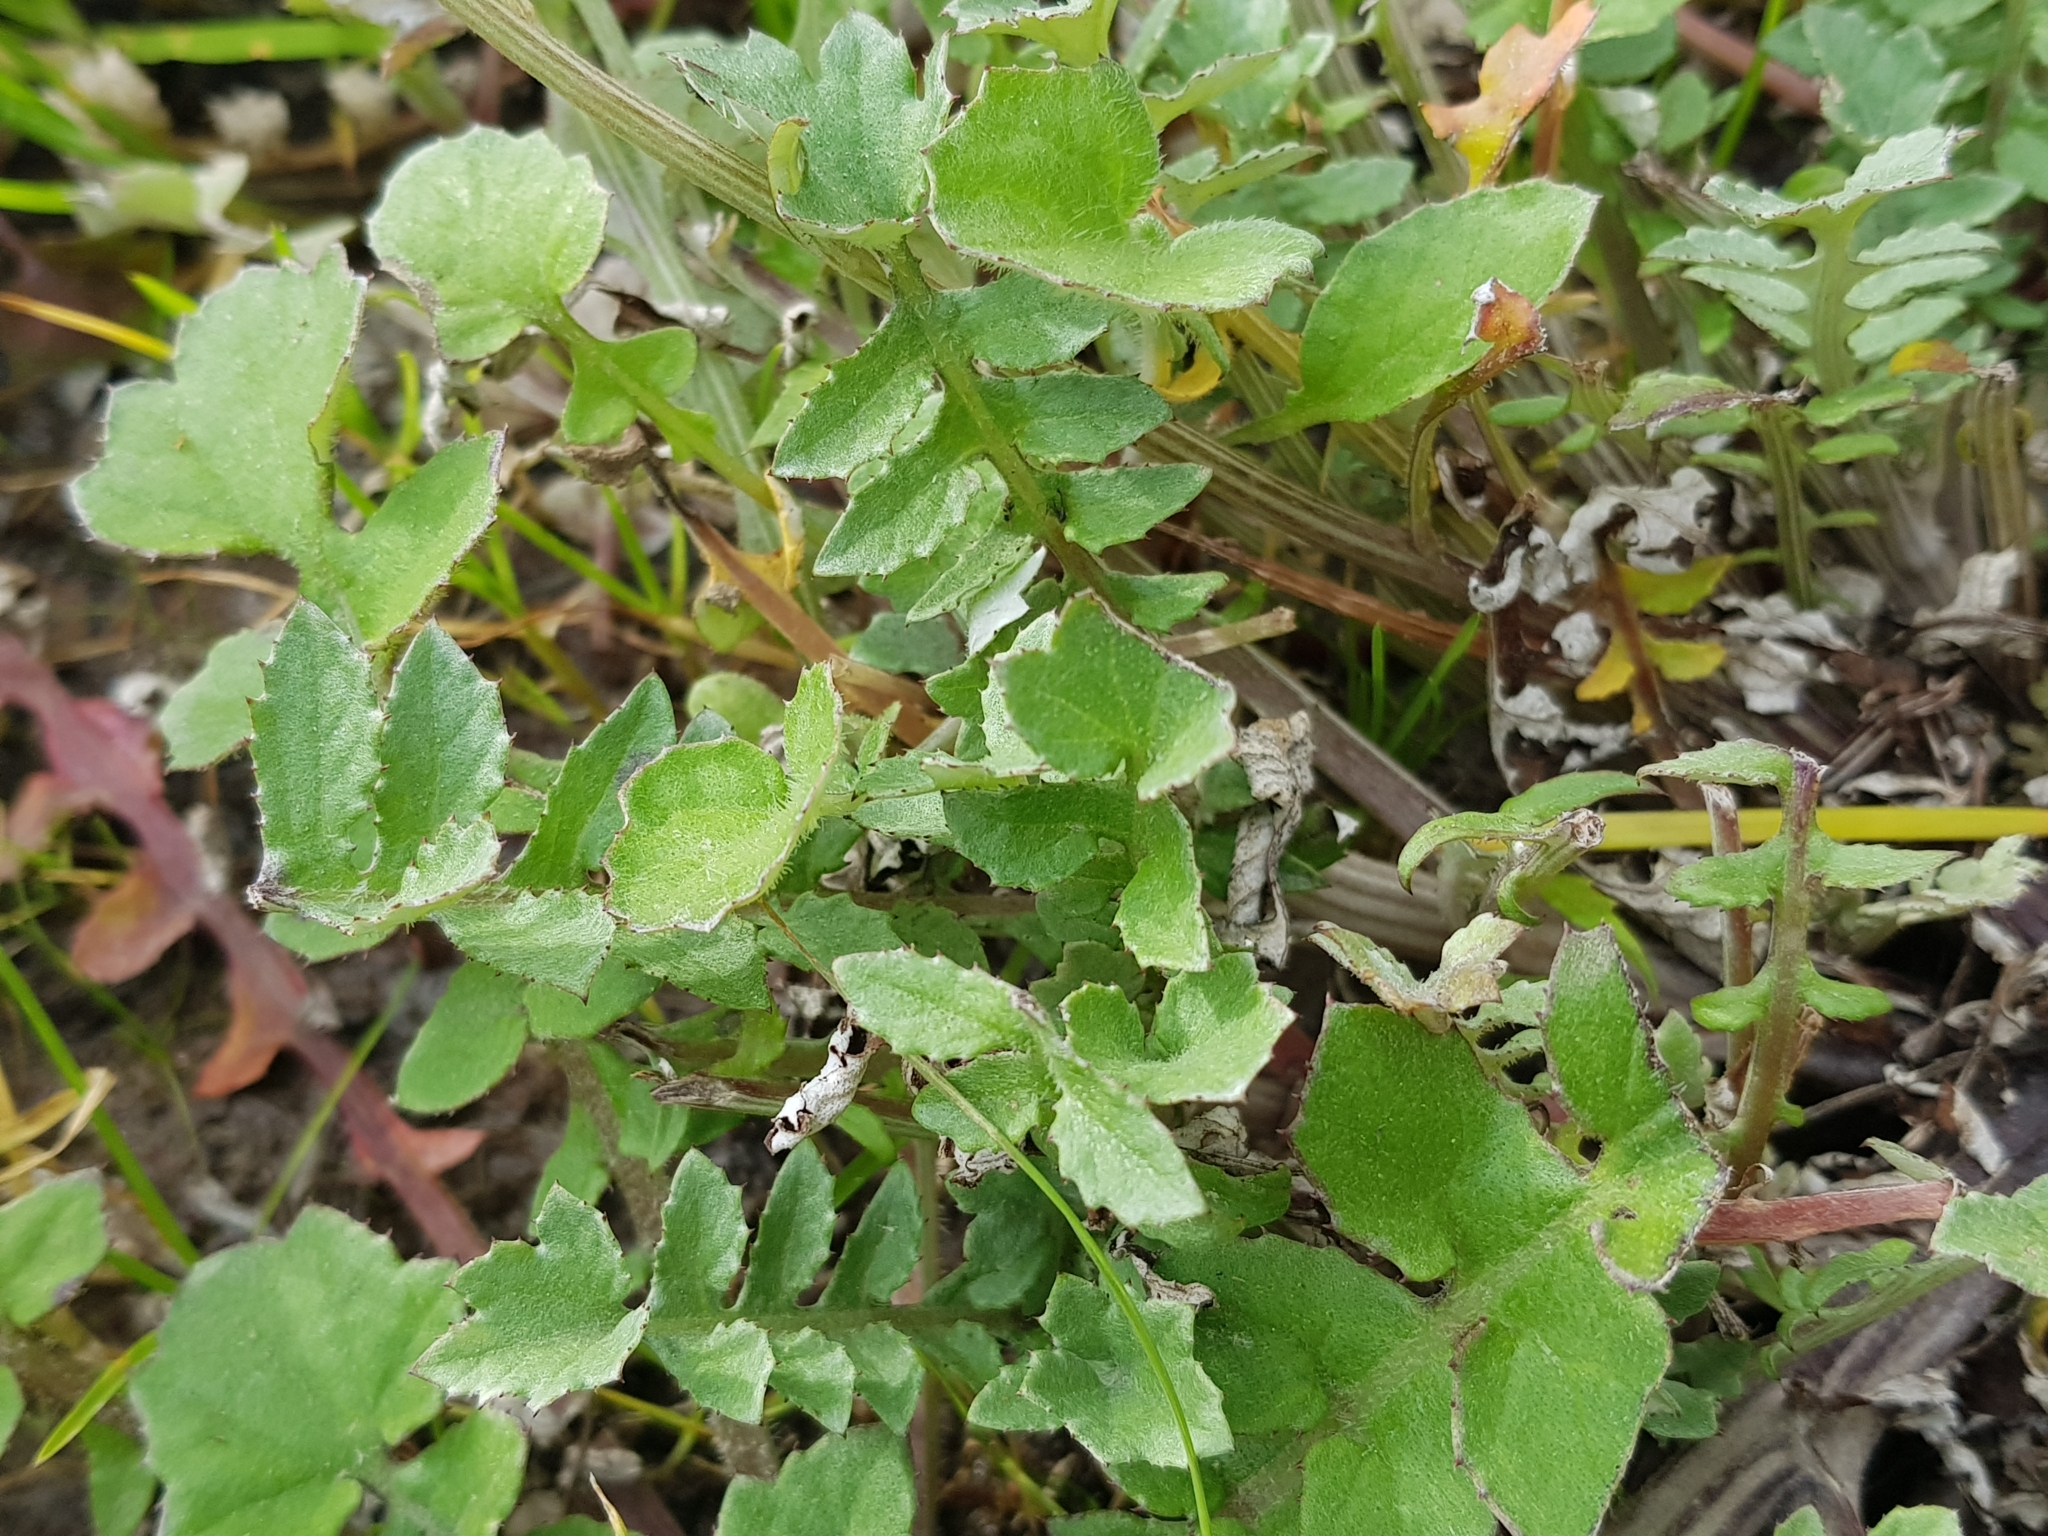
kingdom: Plantae
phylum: Tracheophyta
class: Magnoliopsida
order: Asterales
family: Asteraceae
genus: Arctotheca
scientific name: Arctotheca calendula
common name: Capeweed
